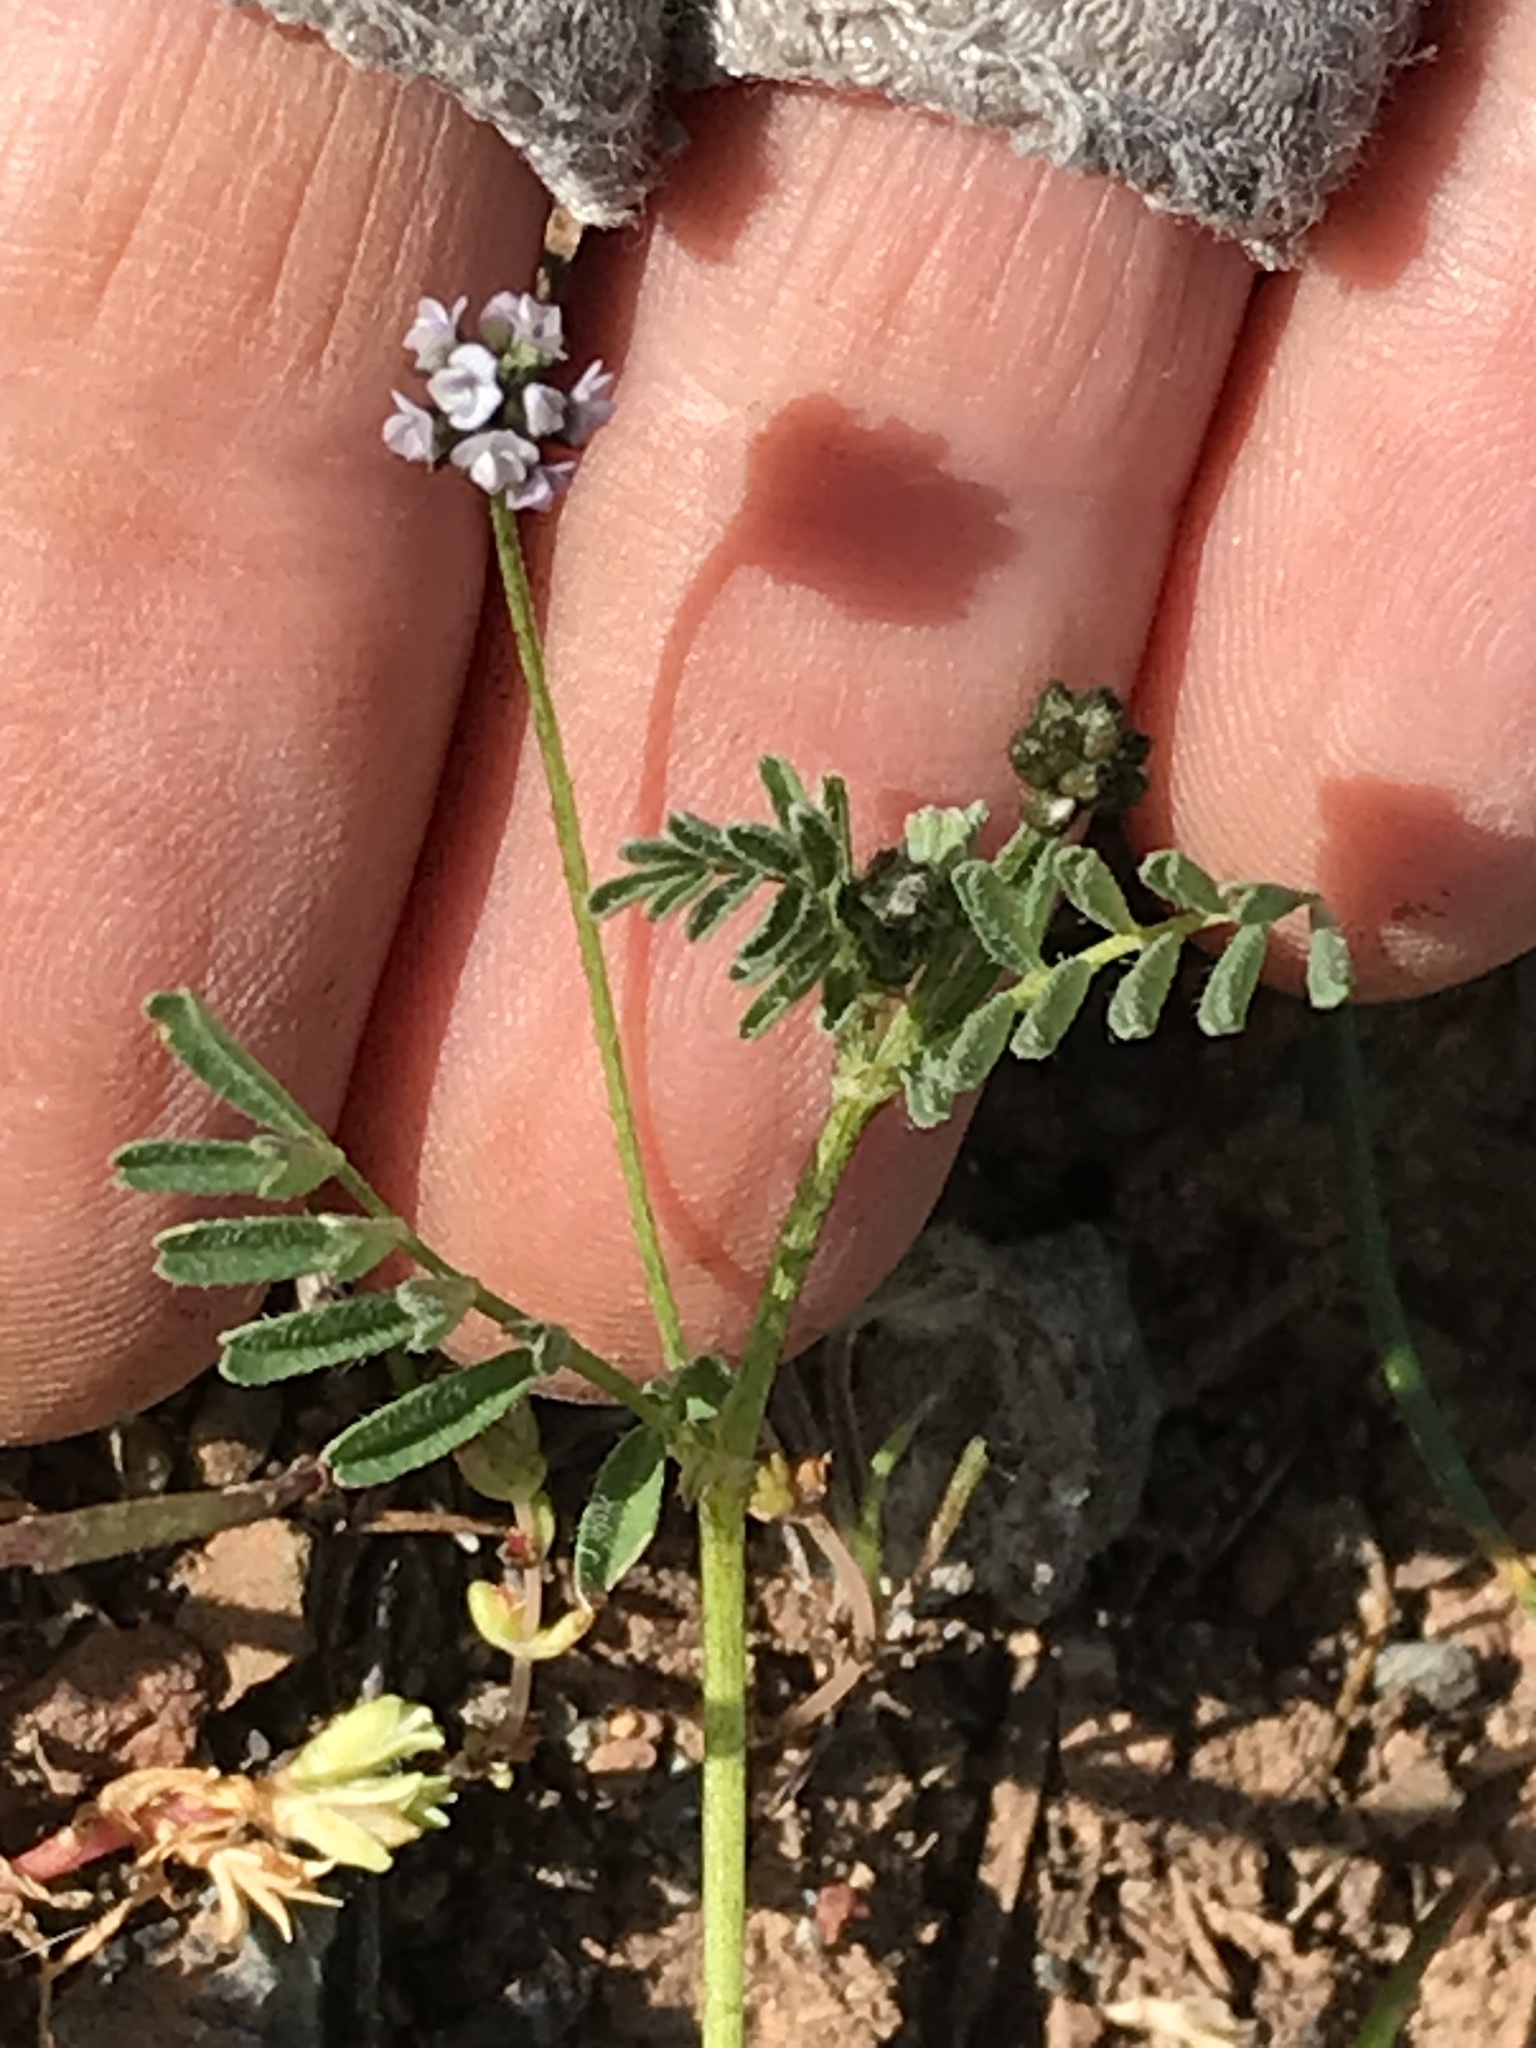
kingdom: Plantae
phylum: Tracheophyta
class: Magnoliopsida
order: Fabales
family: Fabaceae
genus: Astragalus
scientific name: Astragalus gambelianus
